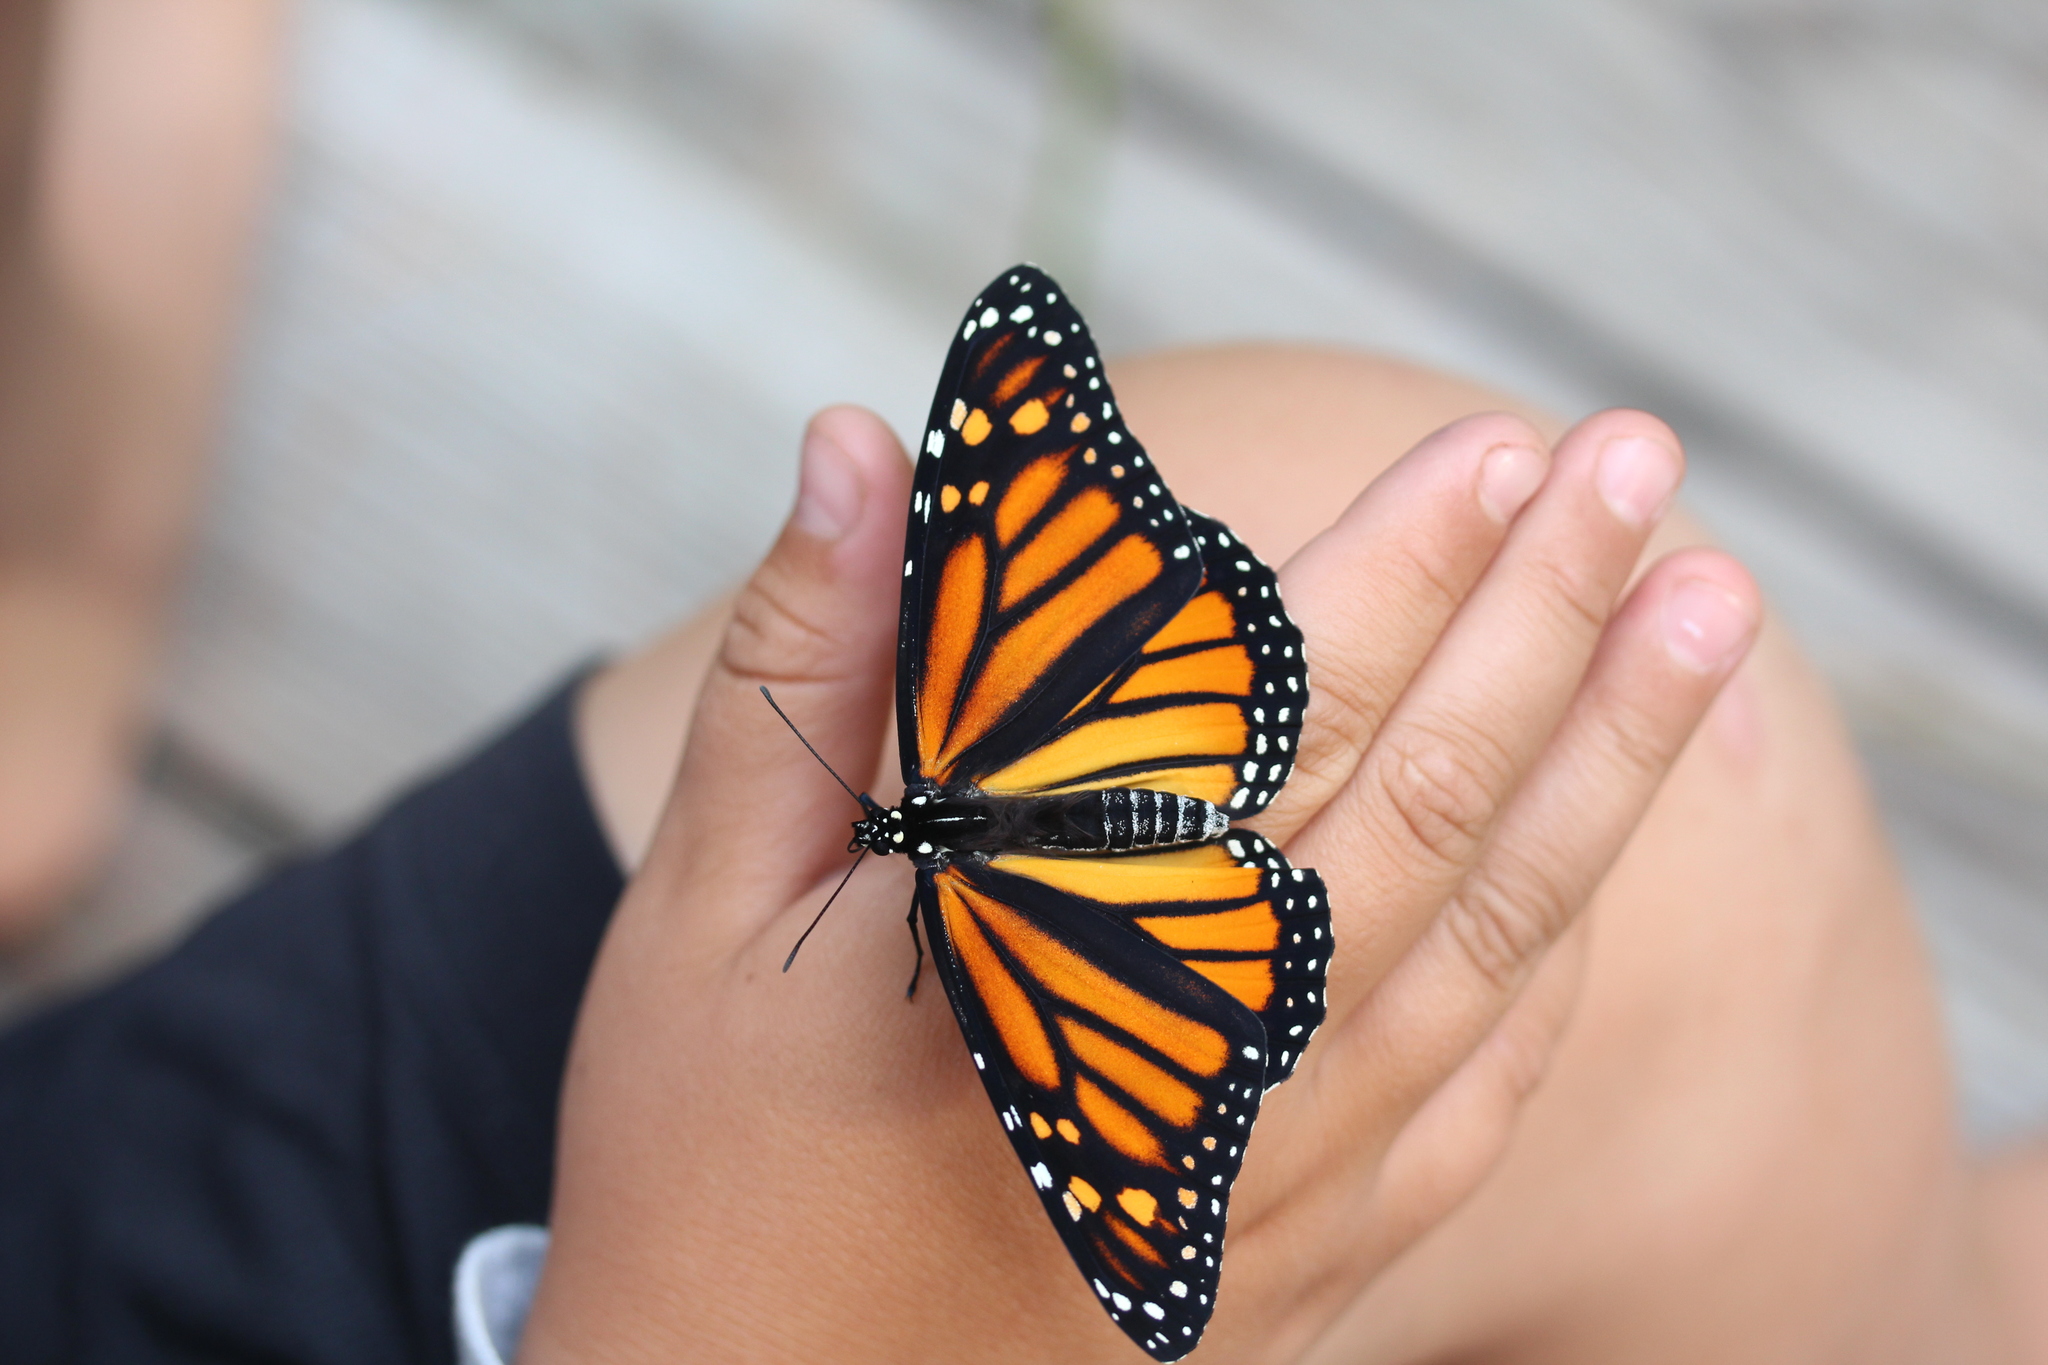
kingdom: Animalia
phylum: Arthropoda
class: Insecta
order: Lepidoptera
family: Nymphalidae
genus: Danaus
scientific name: Danaus plexippus
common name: Monarch
